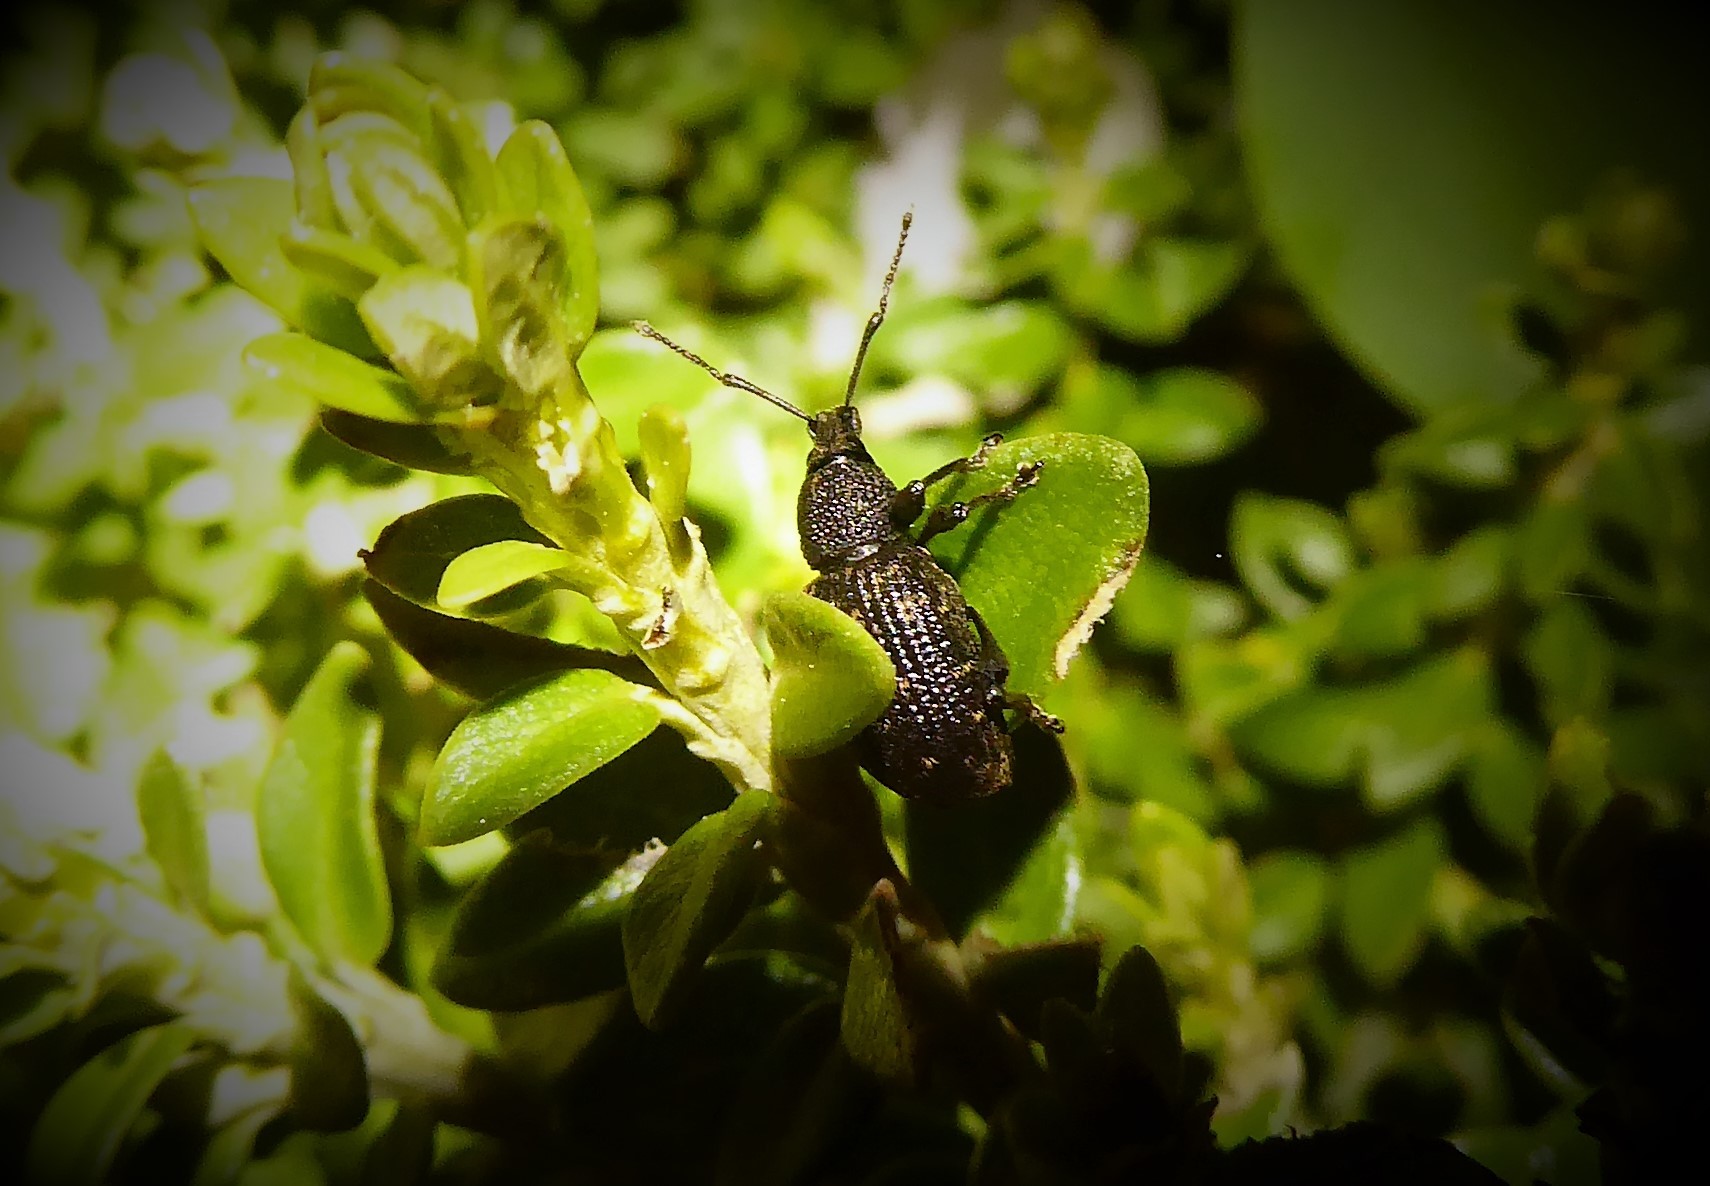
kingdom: Animalia
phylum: Arthropoda
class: Insecta
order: Coleoptera
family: Curculionidae
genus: Otiorhynchus
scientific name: Otiorhynchus sulcatus
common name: Black vine weevil
